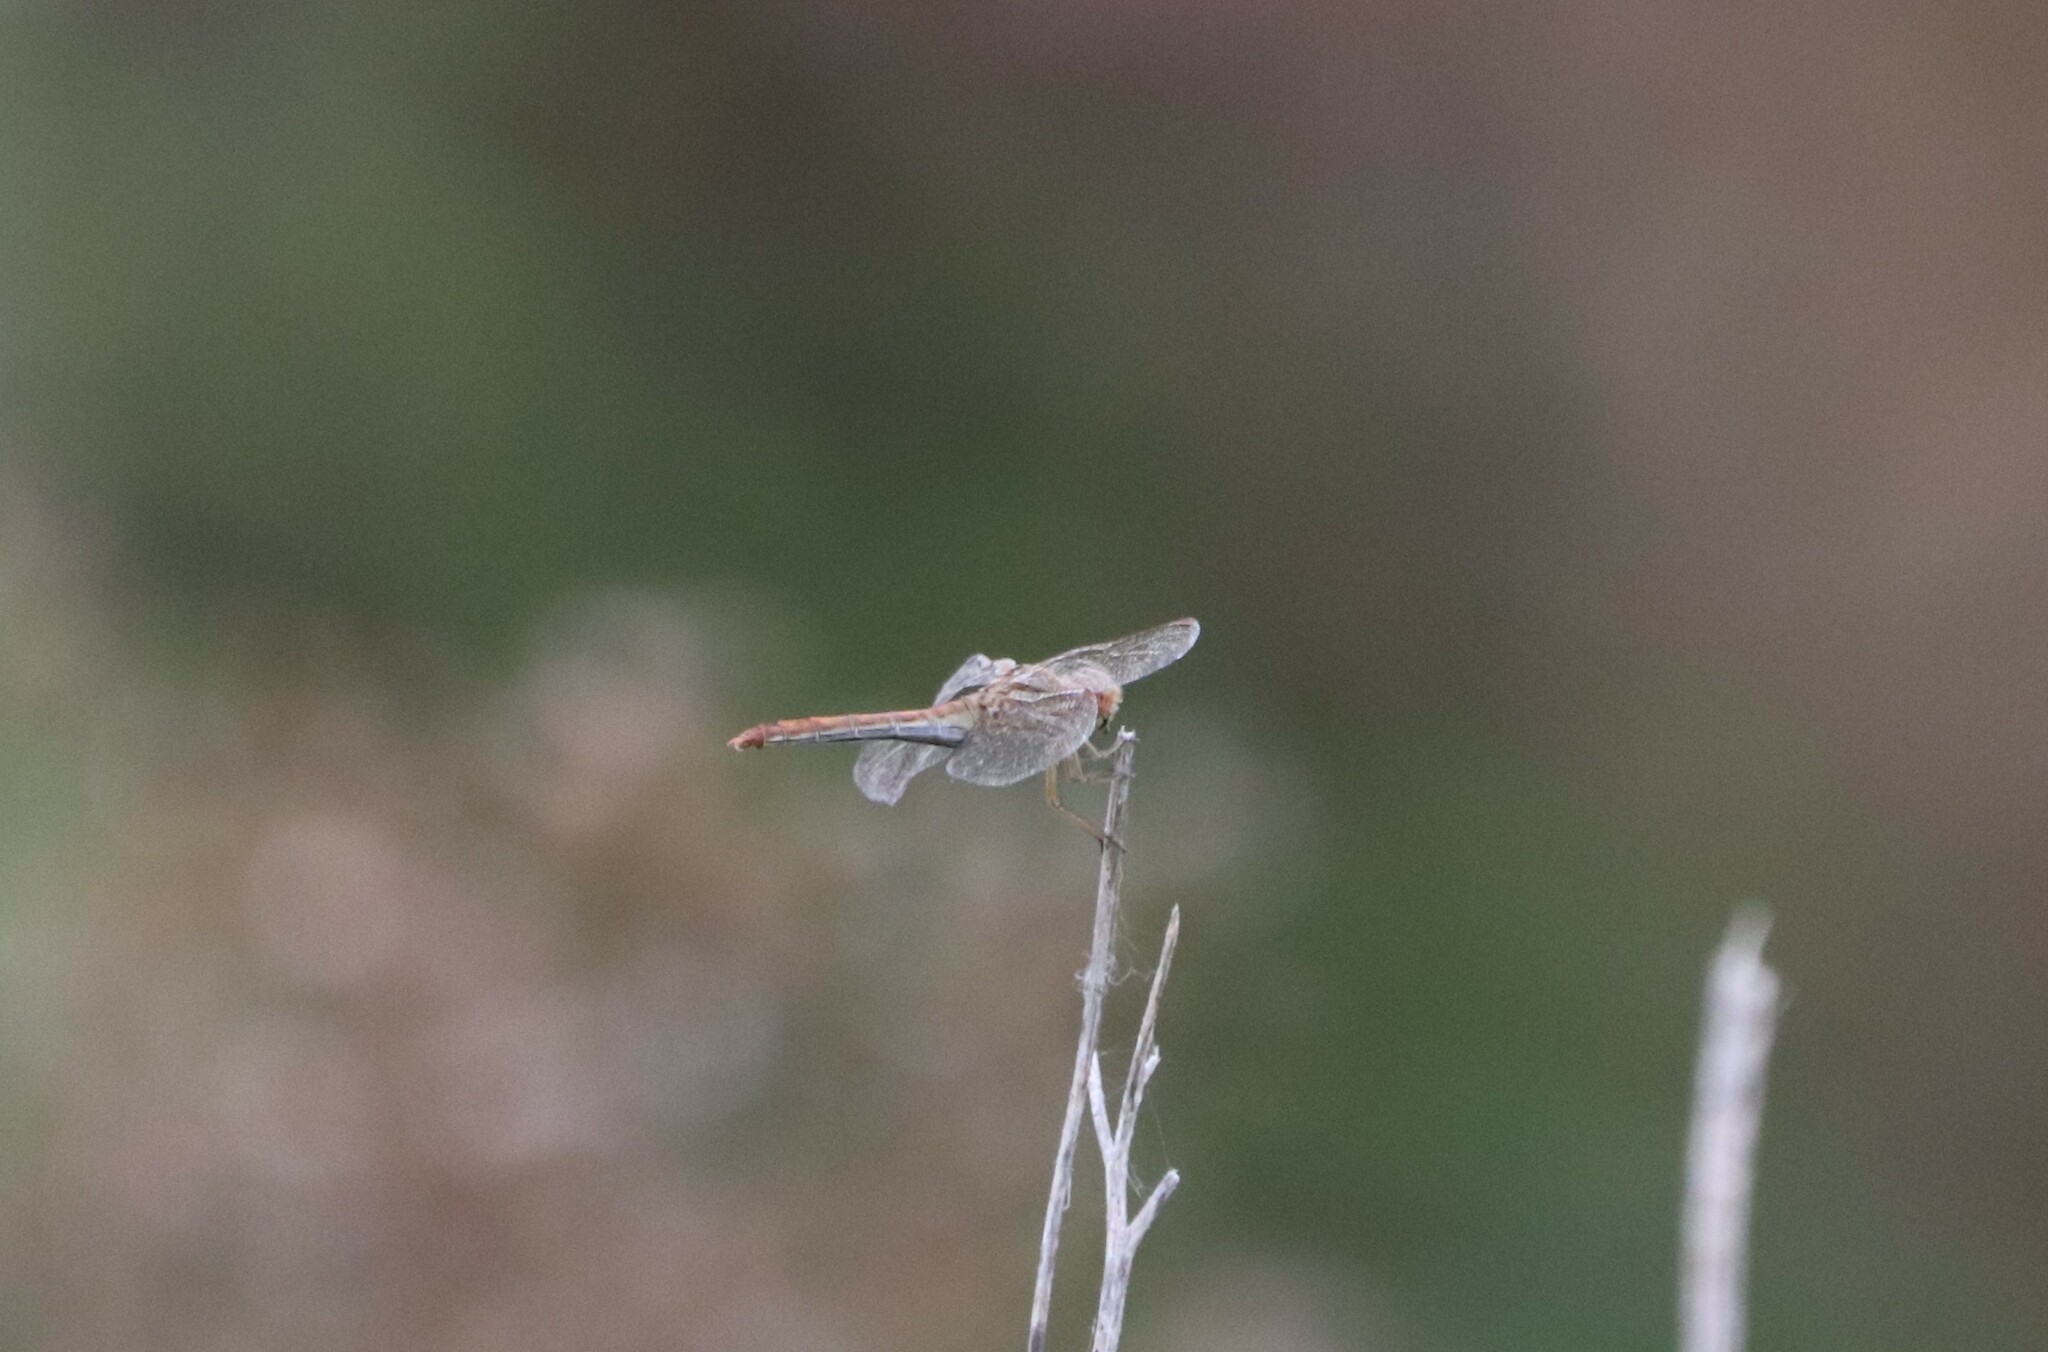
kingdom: Animalia
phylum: Arthropoda
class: Insecta
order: Odonata
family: Libellulidae
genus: Sympetrum
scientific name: Sympetrum meridionale
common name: Southern darter
